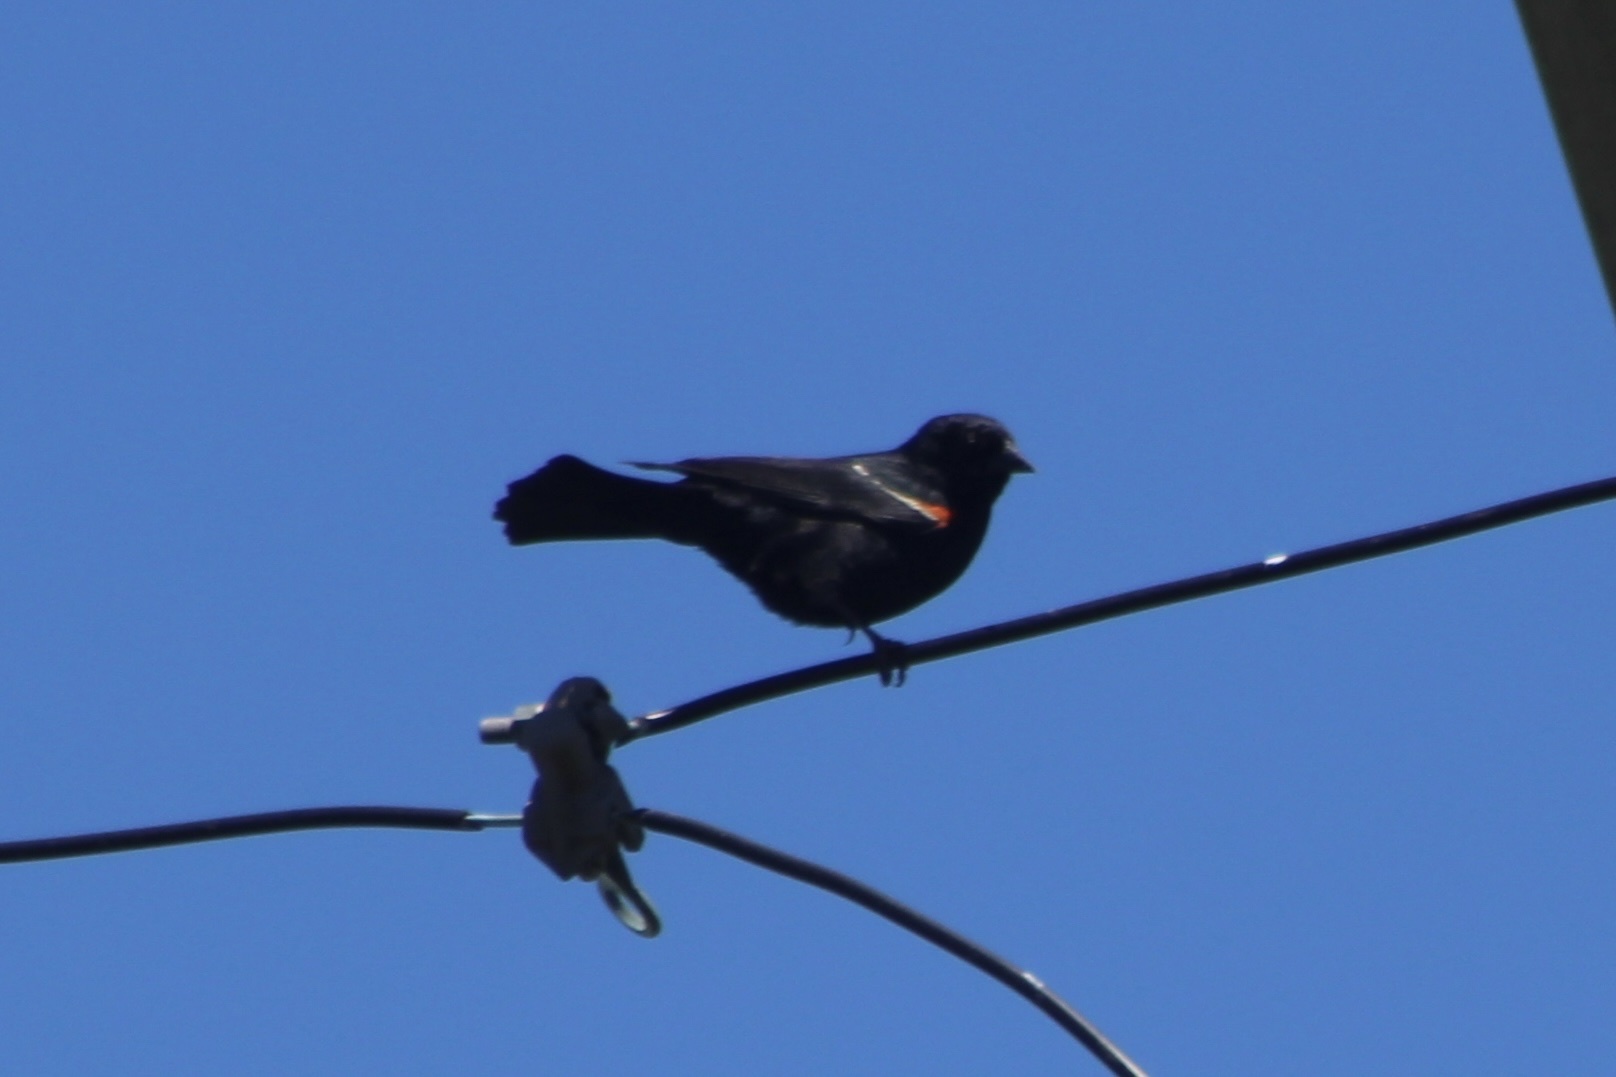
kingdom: Animalia
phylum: Chordata
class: Aves
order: Passeriformes
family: Icteridae
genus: Agelaius
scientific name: Agelaius phoeniceus
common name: Red-winged blackbird
